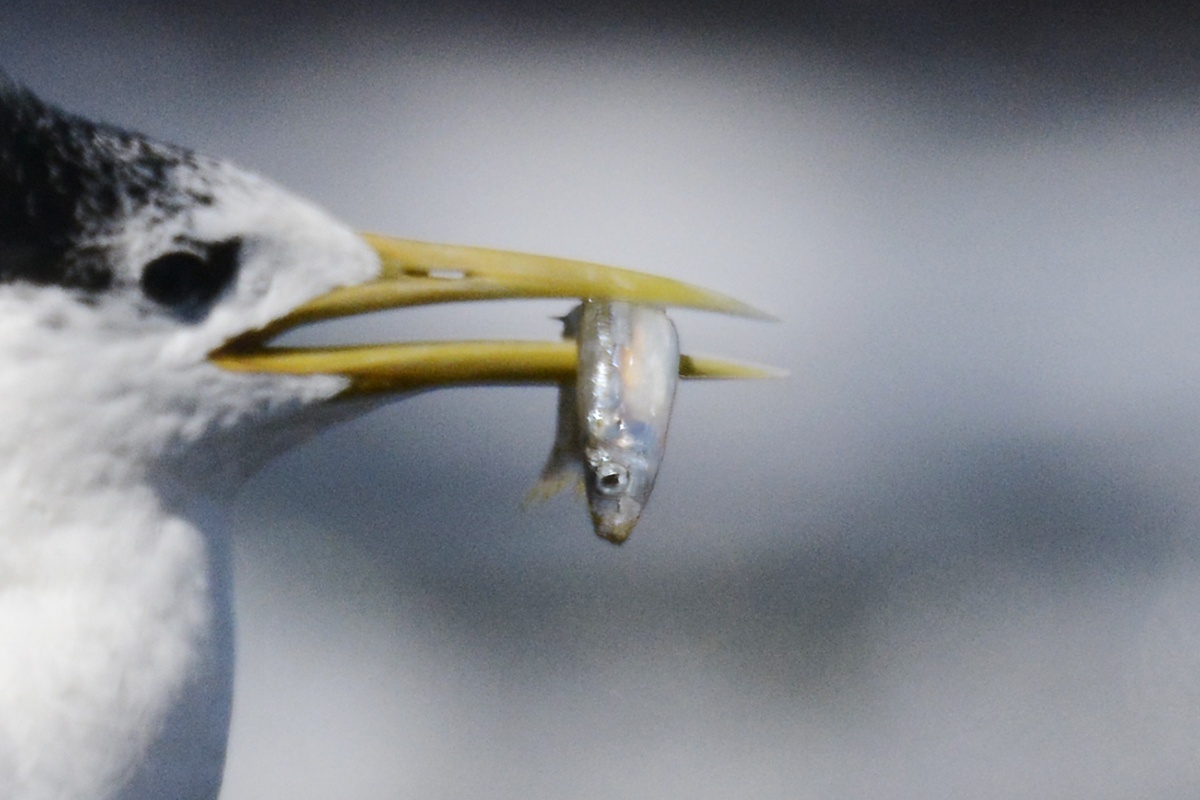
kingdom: Animalia
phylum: Chordata
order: Clupeiformes
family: Clupeidae
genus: Hyperlophus
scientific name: Hyperlophus vittatus
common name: Sandy sprat
